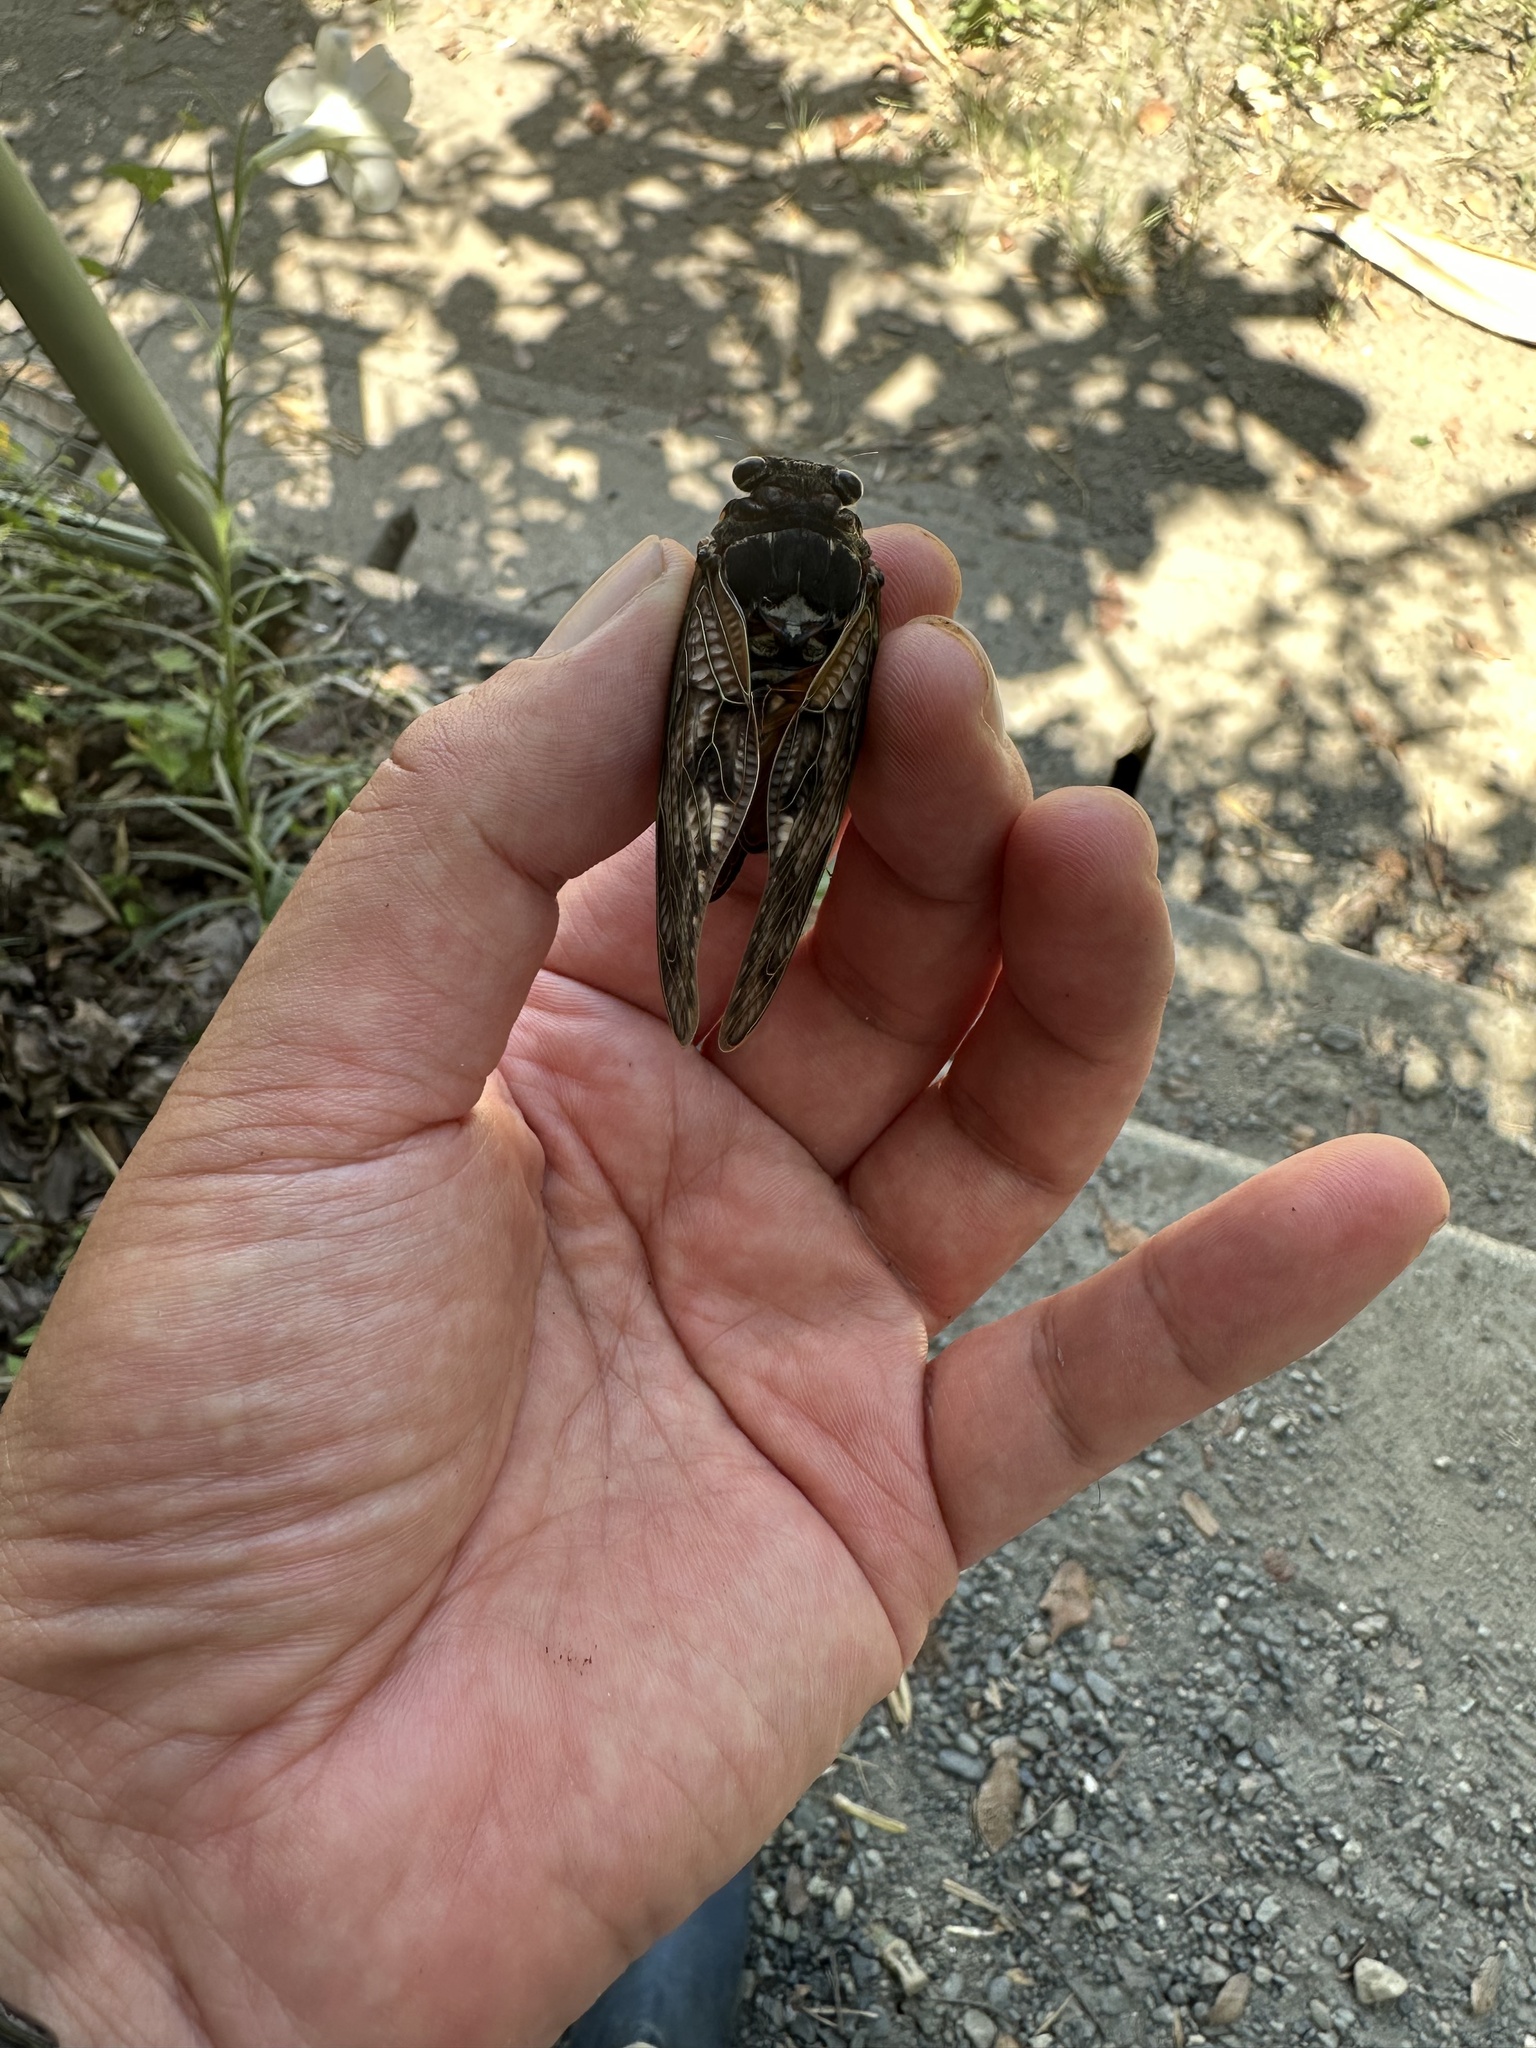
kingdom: Animalia
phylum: Arthropoda
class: Insecta
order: Hemiptera
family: Cicadidae
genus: Graptopsaltria
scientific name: Graptopsaltria nigrofuscata
